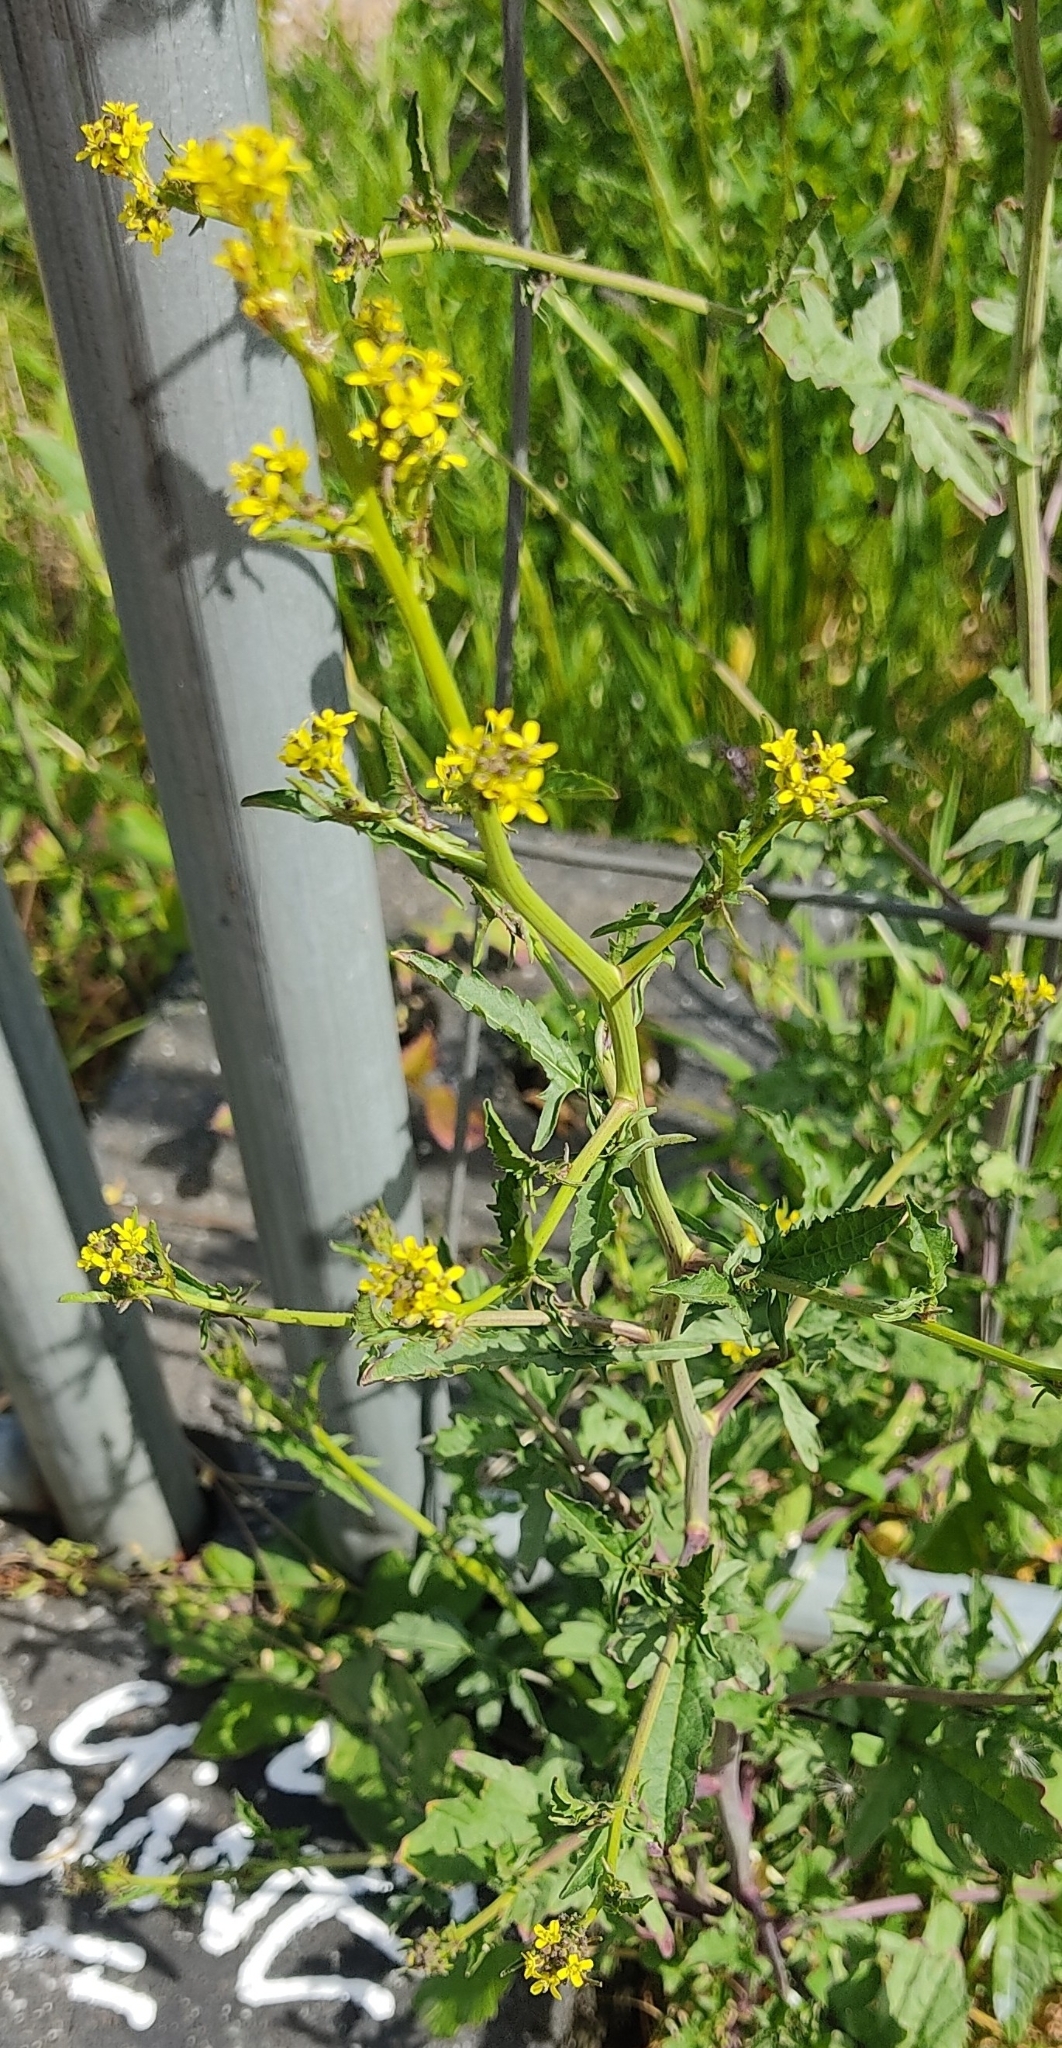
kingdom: Plantae
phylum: Tracheophyta
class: Magnoliopsida
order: Brassicales
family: Brassicaceae
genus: Sisymbrium
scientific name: Sisymbrium officinale
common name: Hedge mustard
